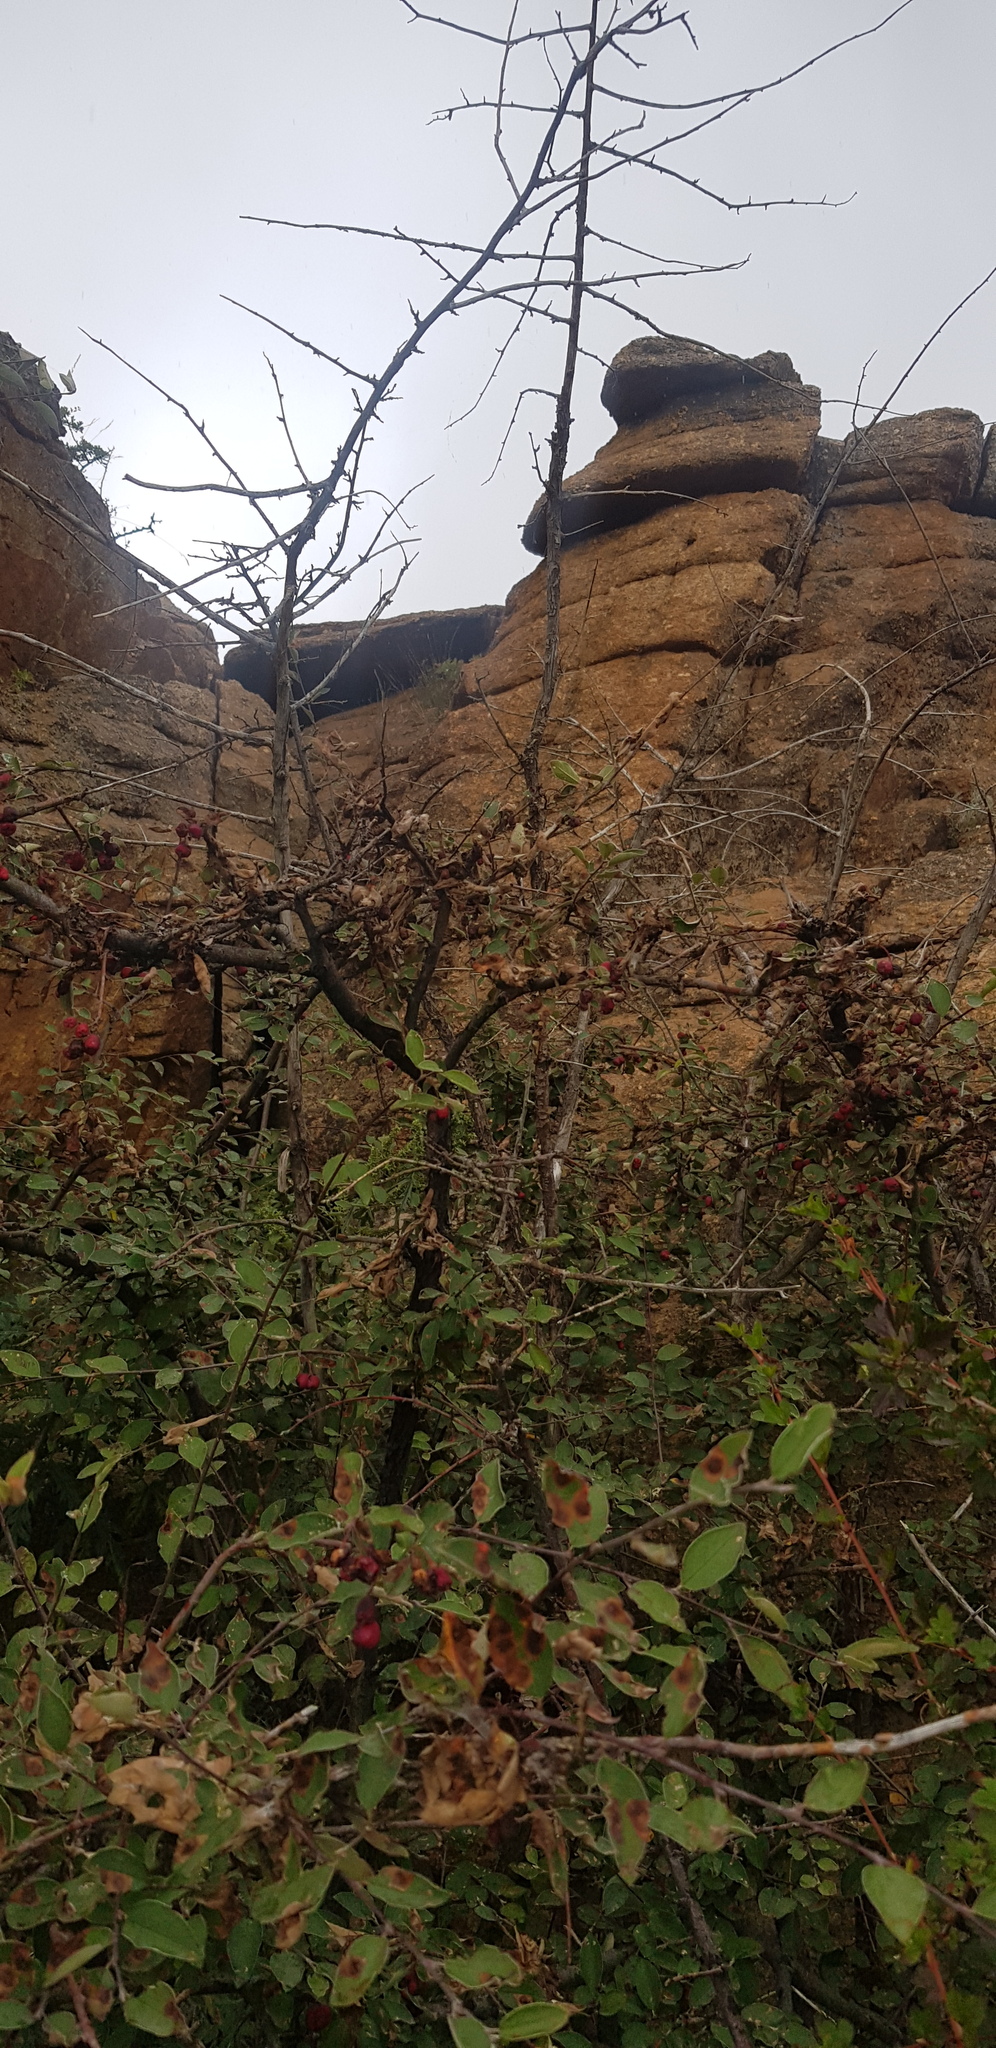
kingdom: Plantae
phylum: Tracheophyta
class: Magnoliopsida
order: Rosales
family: Rosaceae
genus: Cotoneaster
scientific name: Cotoneaster mongolicus
